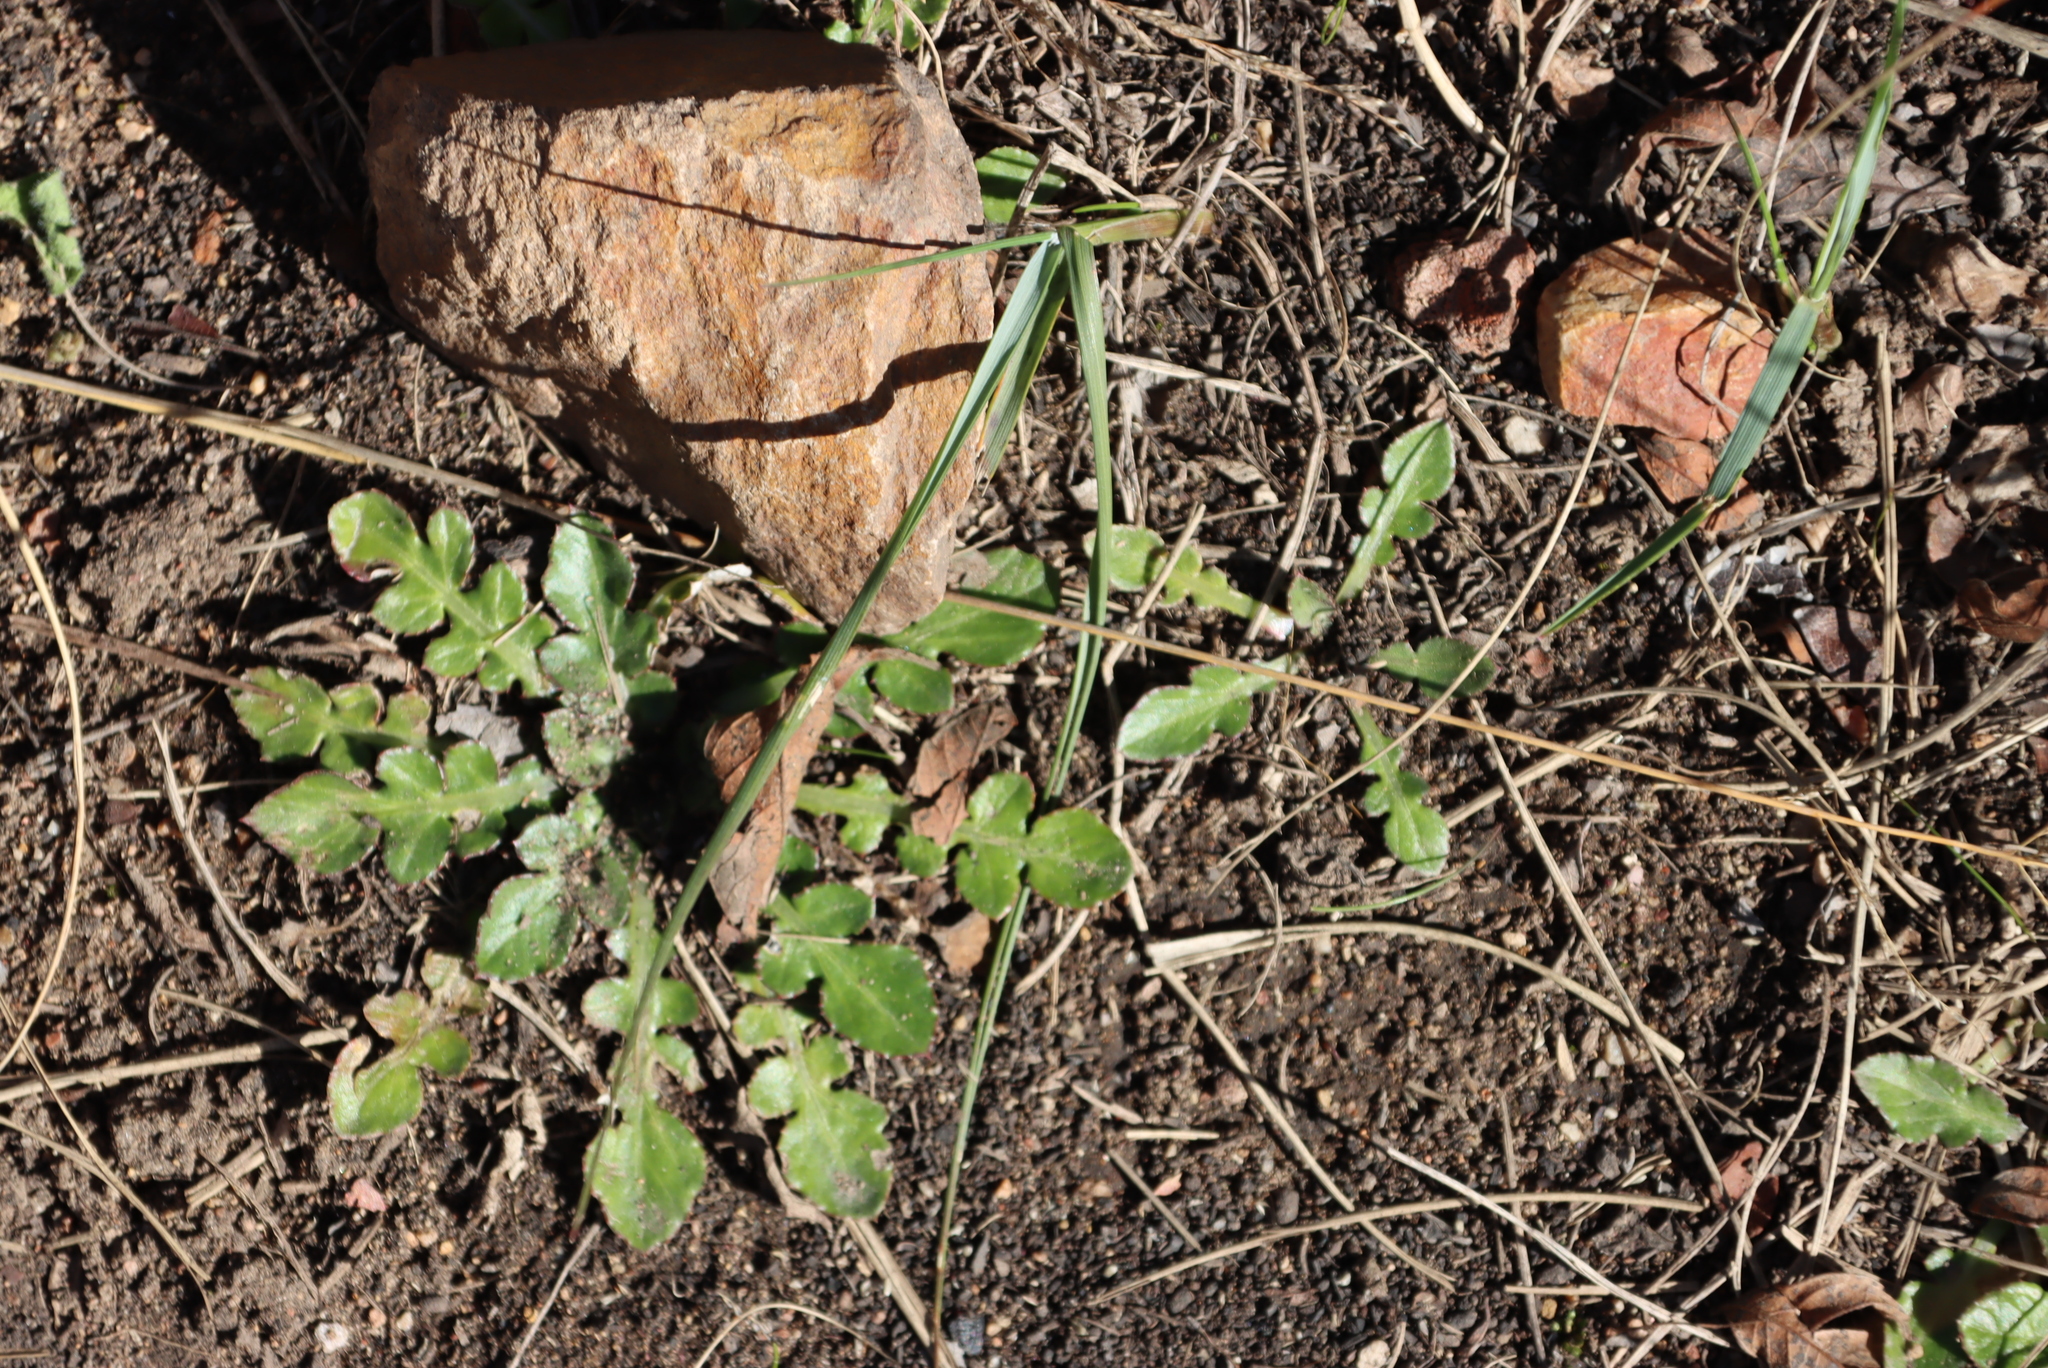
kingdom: Plantae
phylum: Tracheophyta
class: Magnoliopsida
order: Asterales
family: Asteraceae
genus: Arctotheca
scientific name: Arctotheca prostrata
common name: Capeweed
